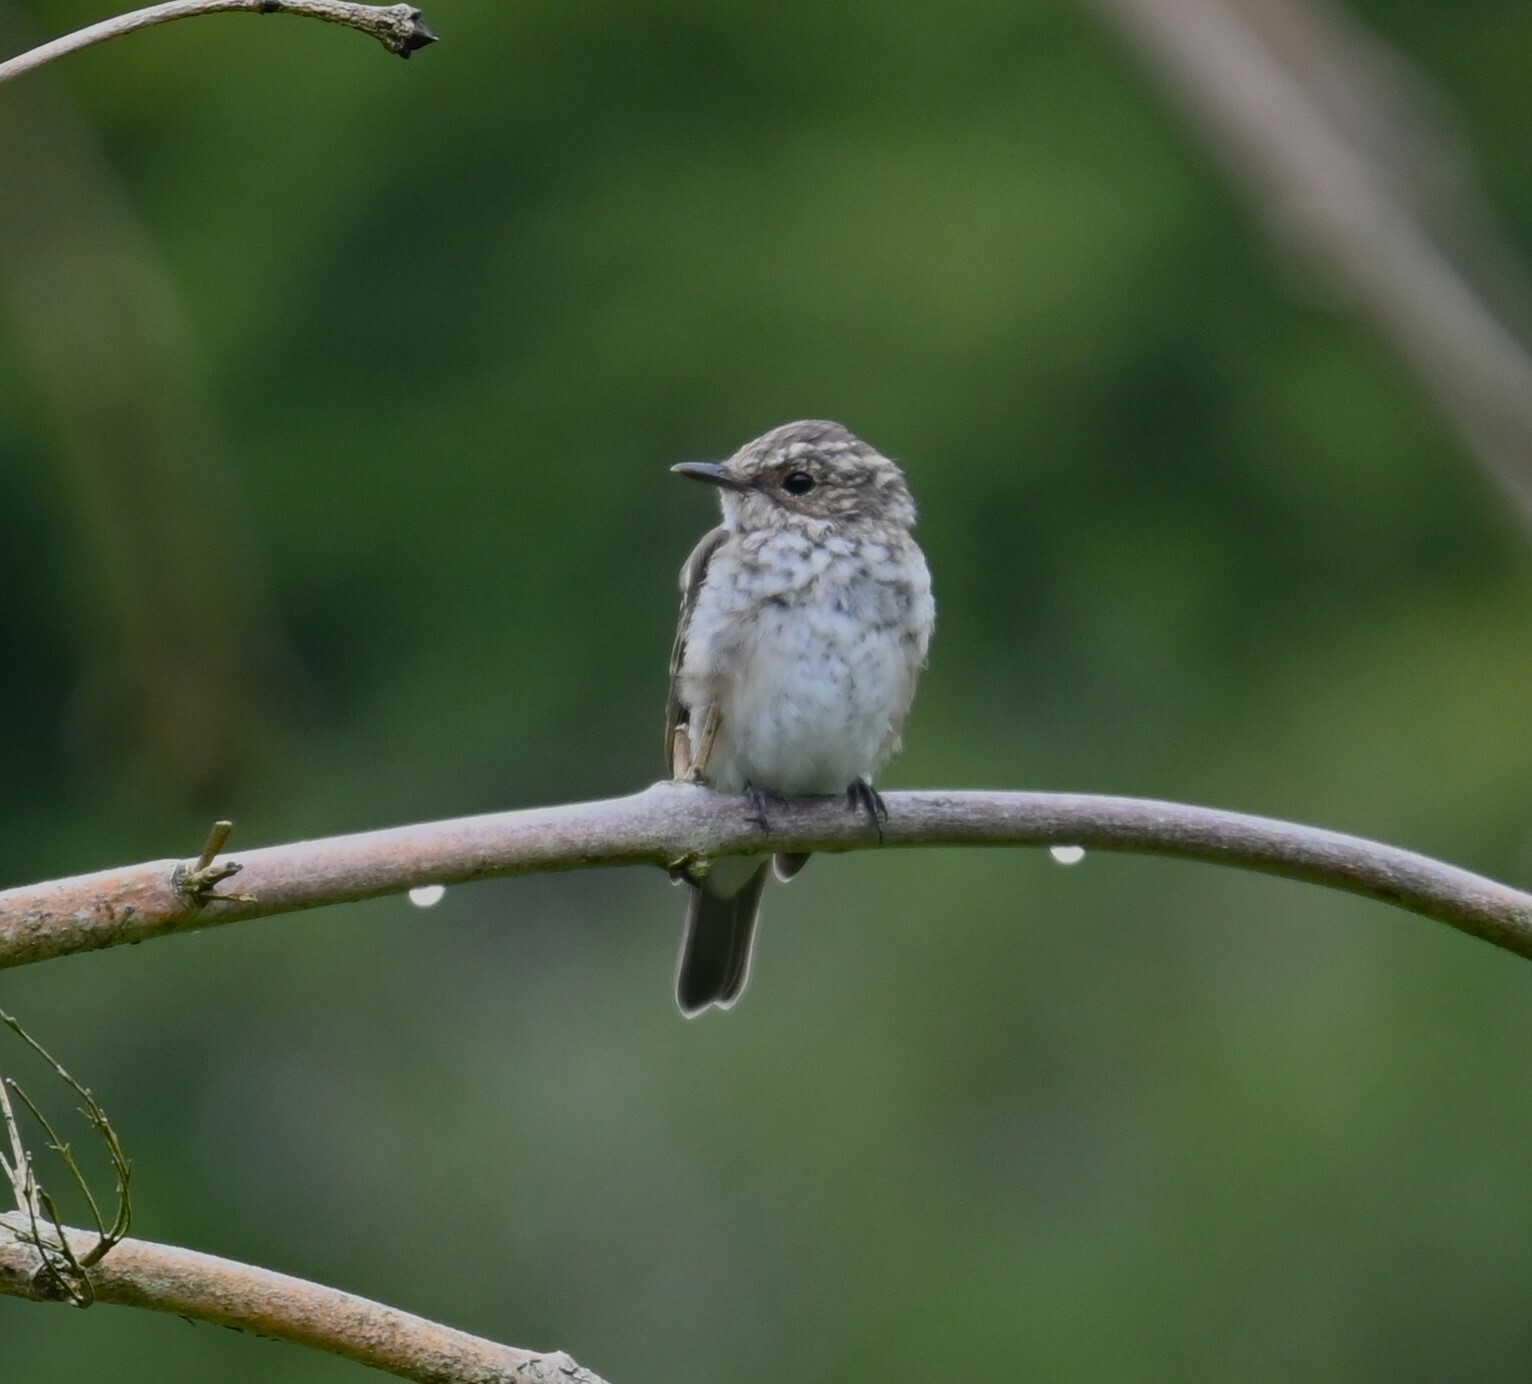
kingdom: Animalia
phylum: Chordata
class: Aves
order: Passeriformes
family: Muscicapidae
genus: Muscicapa
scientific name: Muscicapa striata
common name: Spotted flycatcher
